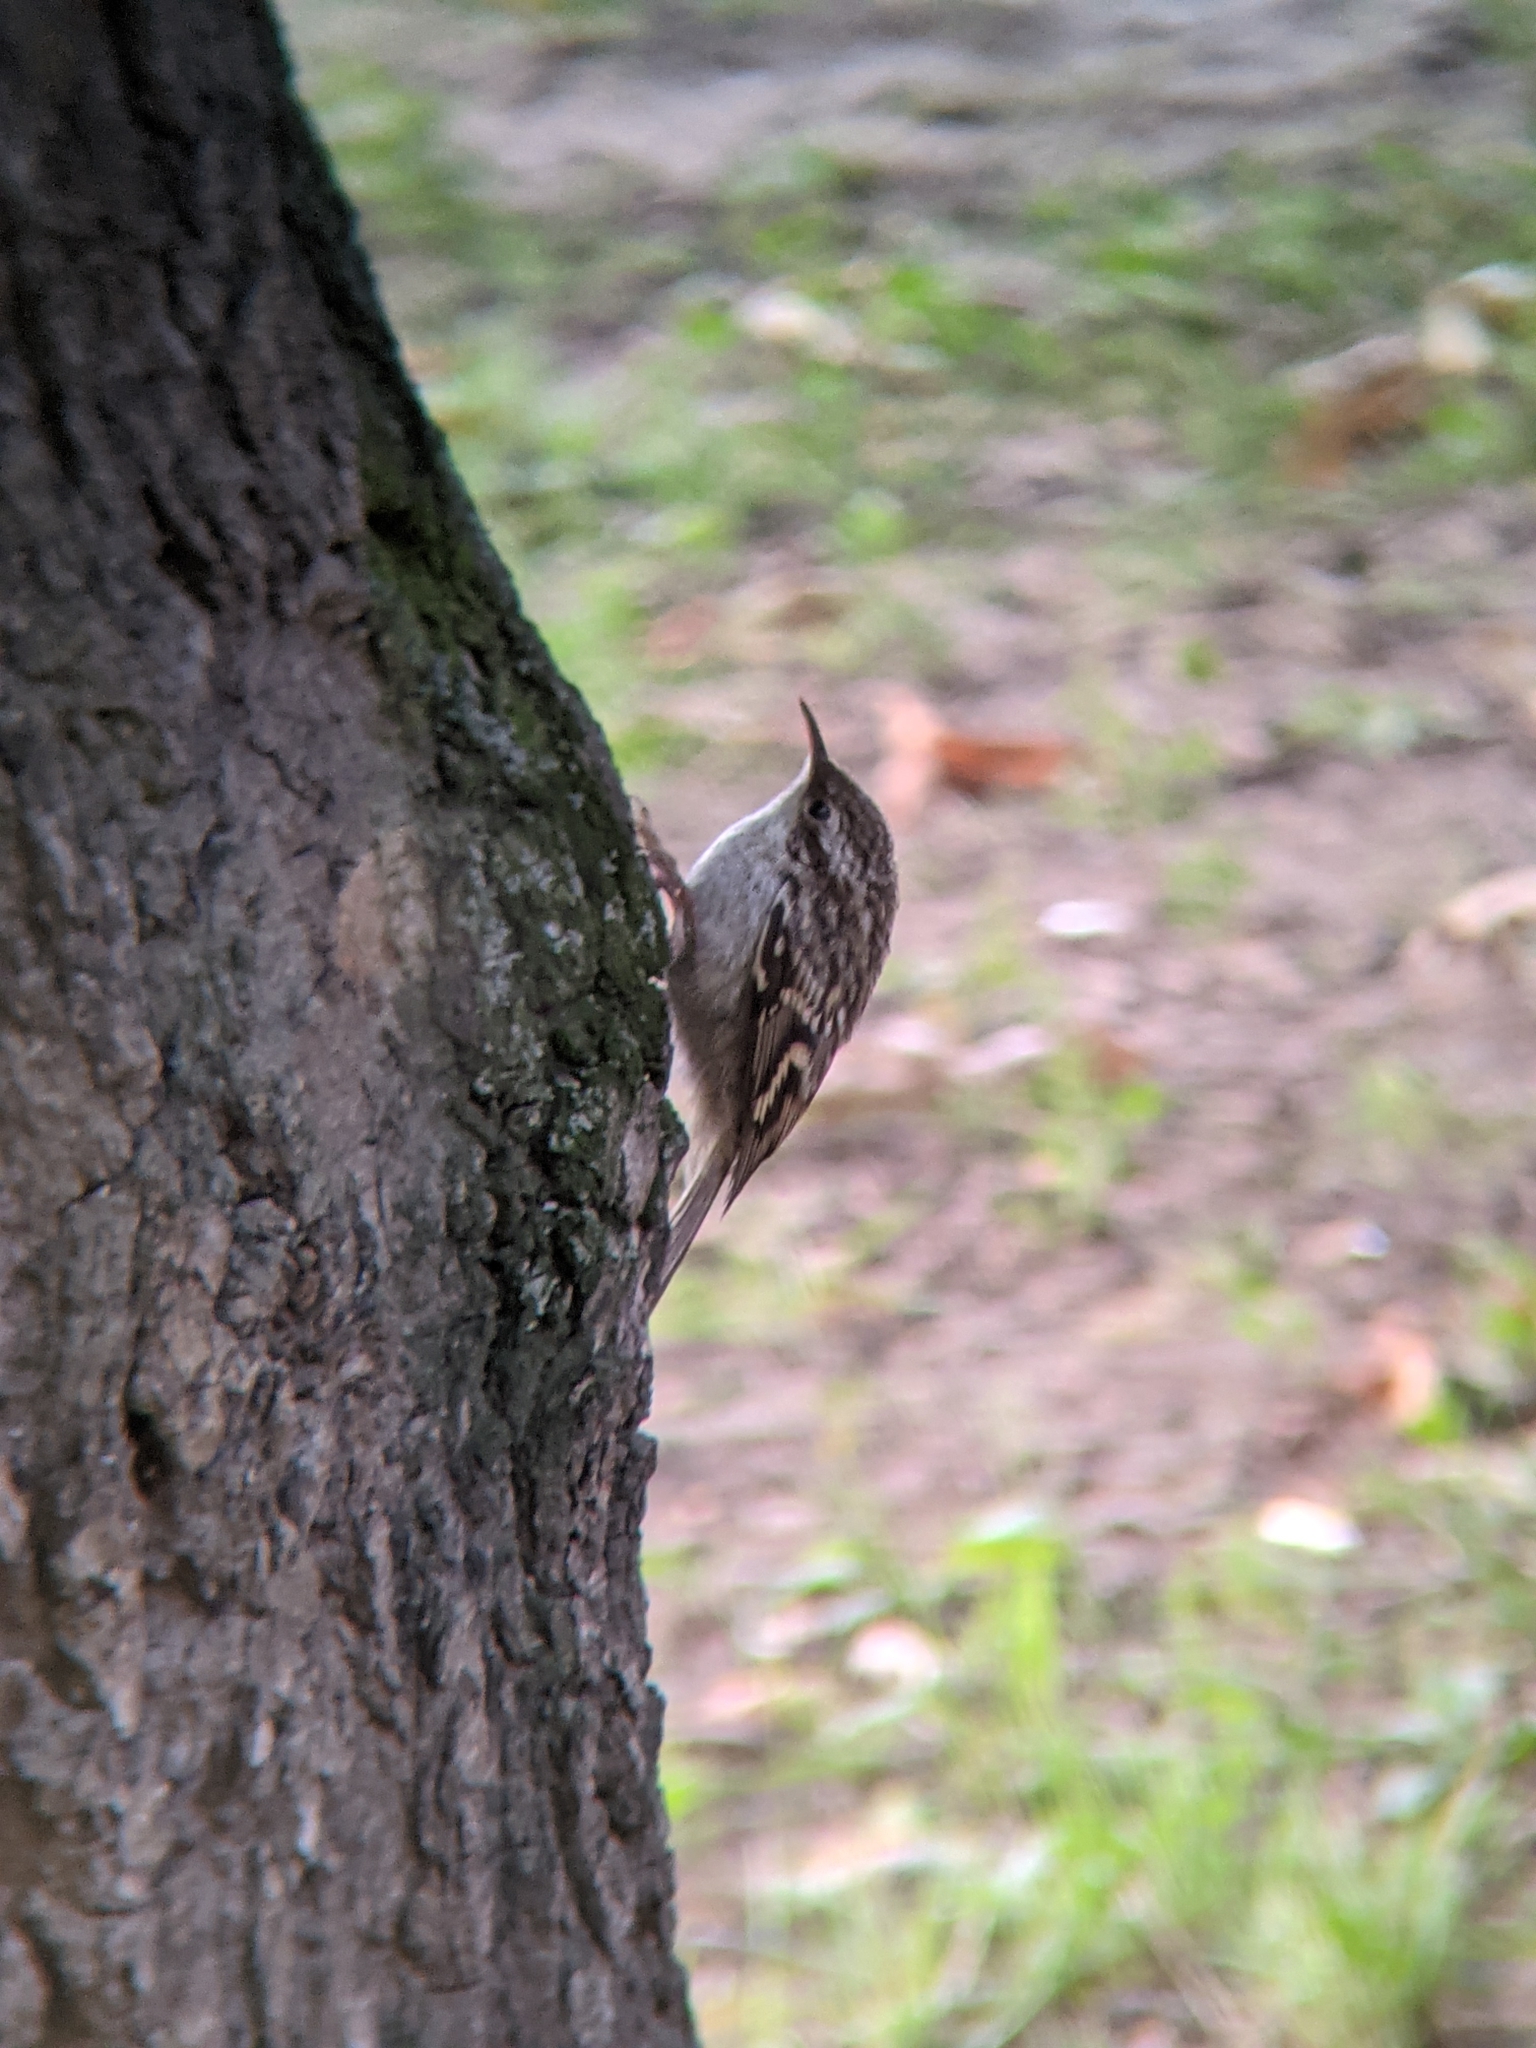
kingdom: Animalia
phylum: Chordata
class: Aves
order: Passeriformes
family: Certhiidae
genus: Certhia
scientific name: Certhia brachydactyla
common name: Short-toed treecreeper
